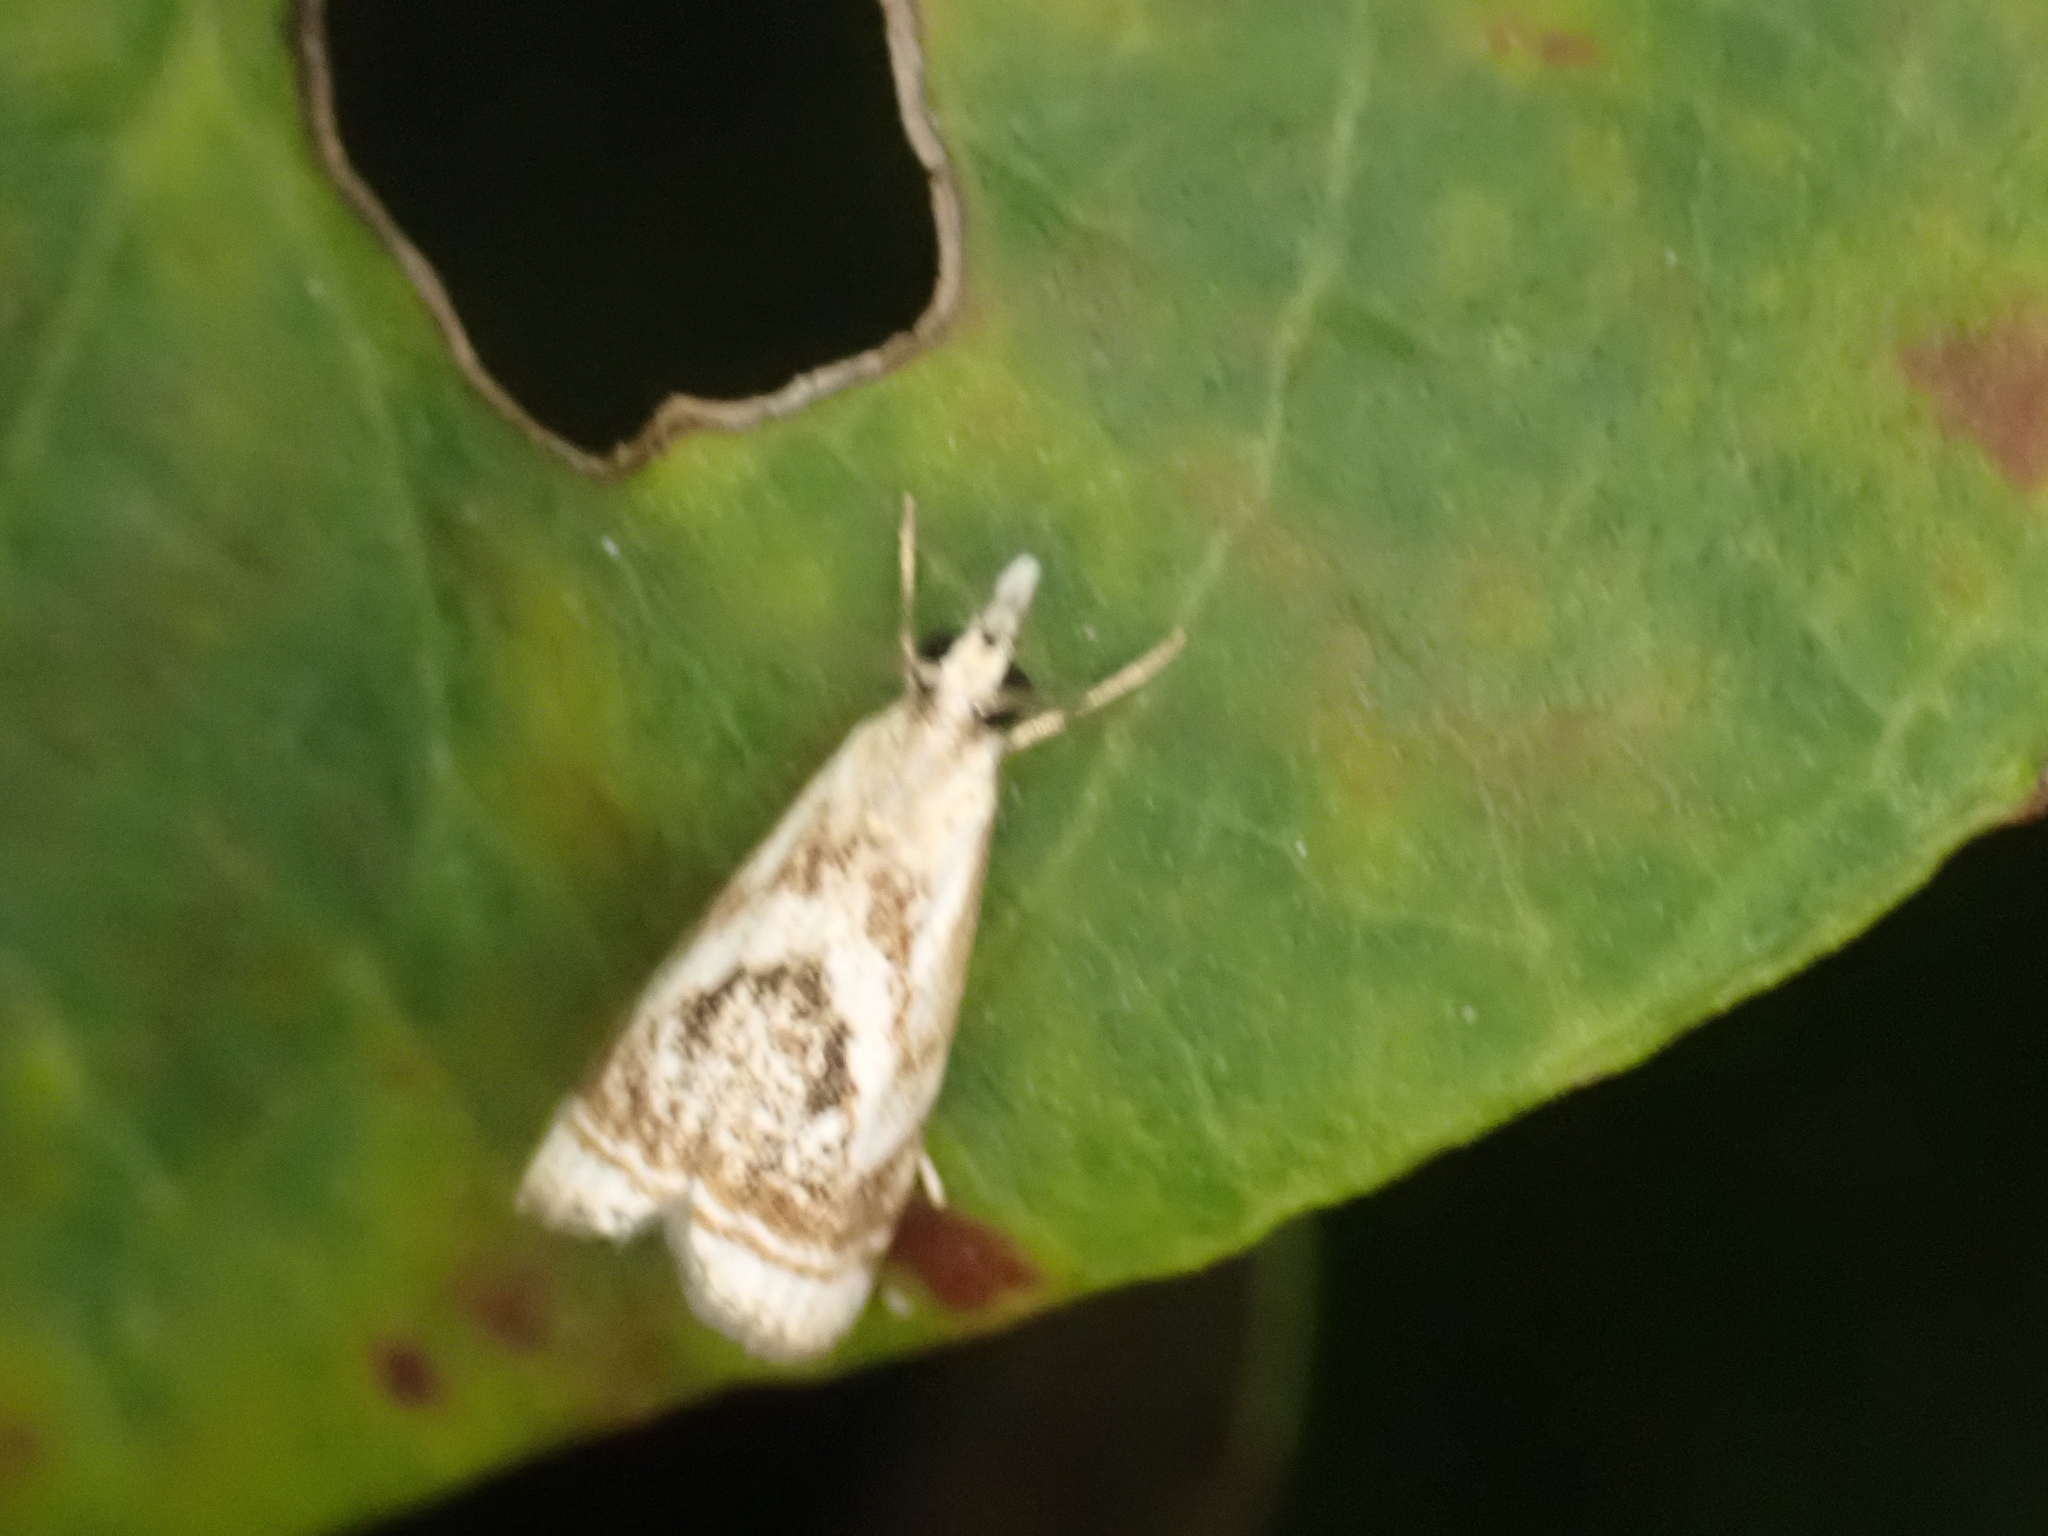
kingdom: Animalia
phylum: Arthropoda
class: Insecta
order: Lepidoptera
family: Crambidae
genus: Microcrambus
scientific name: Microcrambus elegans
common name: Elegant grass-veneer
